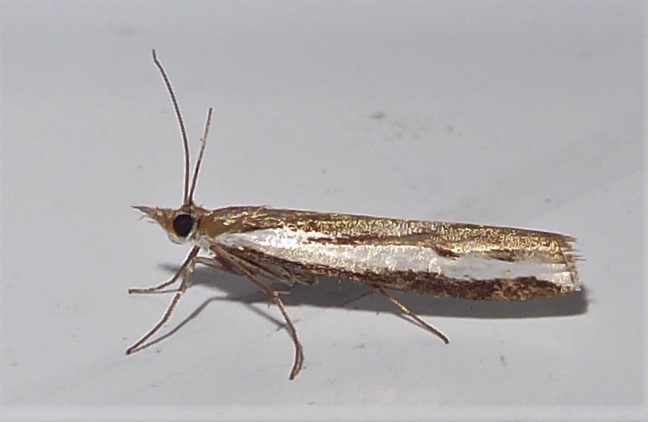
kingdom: Animalia
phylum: Arthropoda
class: Insecta
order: Lepidoptera
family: Crambidae
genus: Orocrambus
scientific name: Orocrambus flexuosellus
